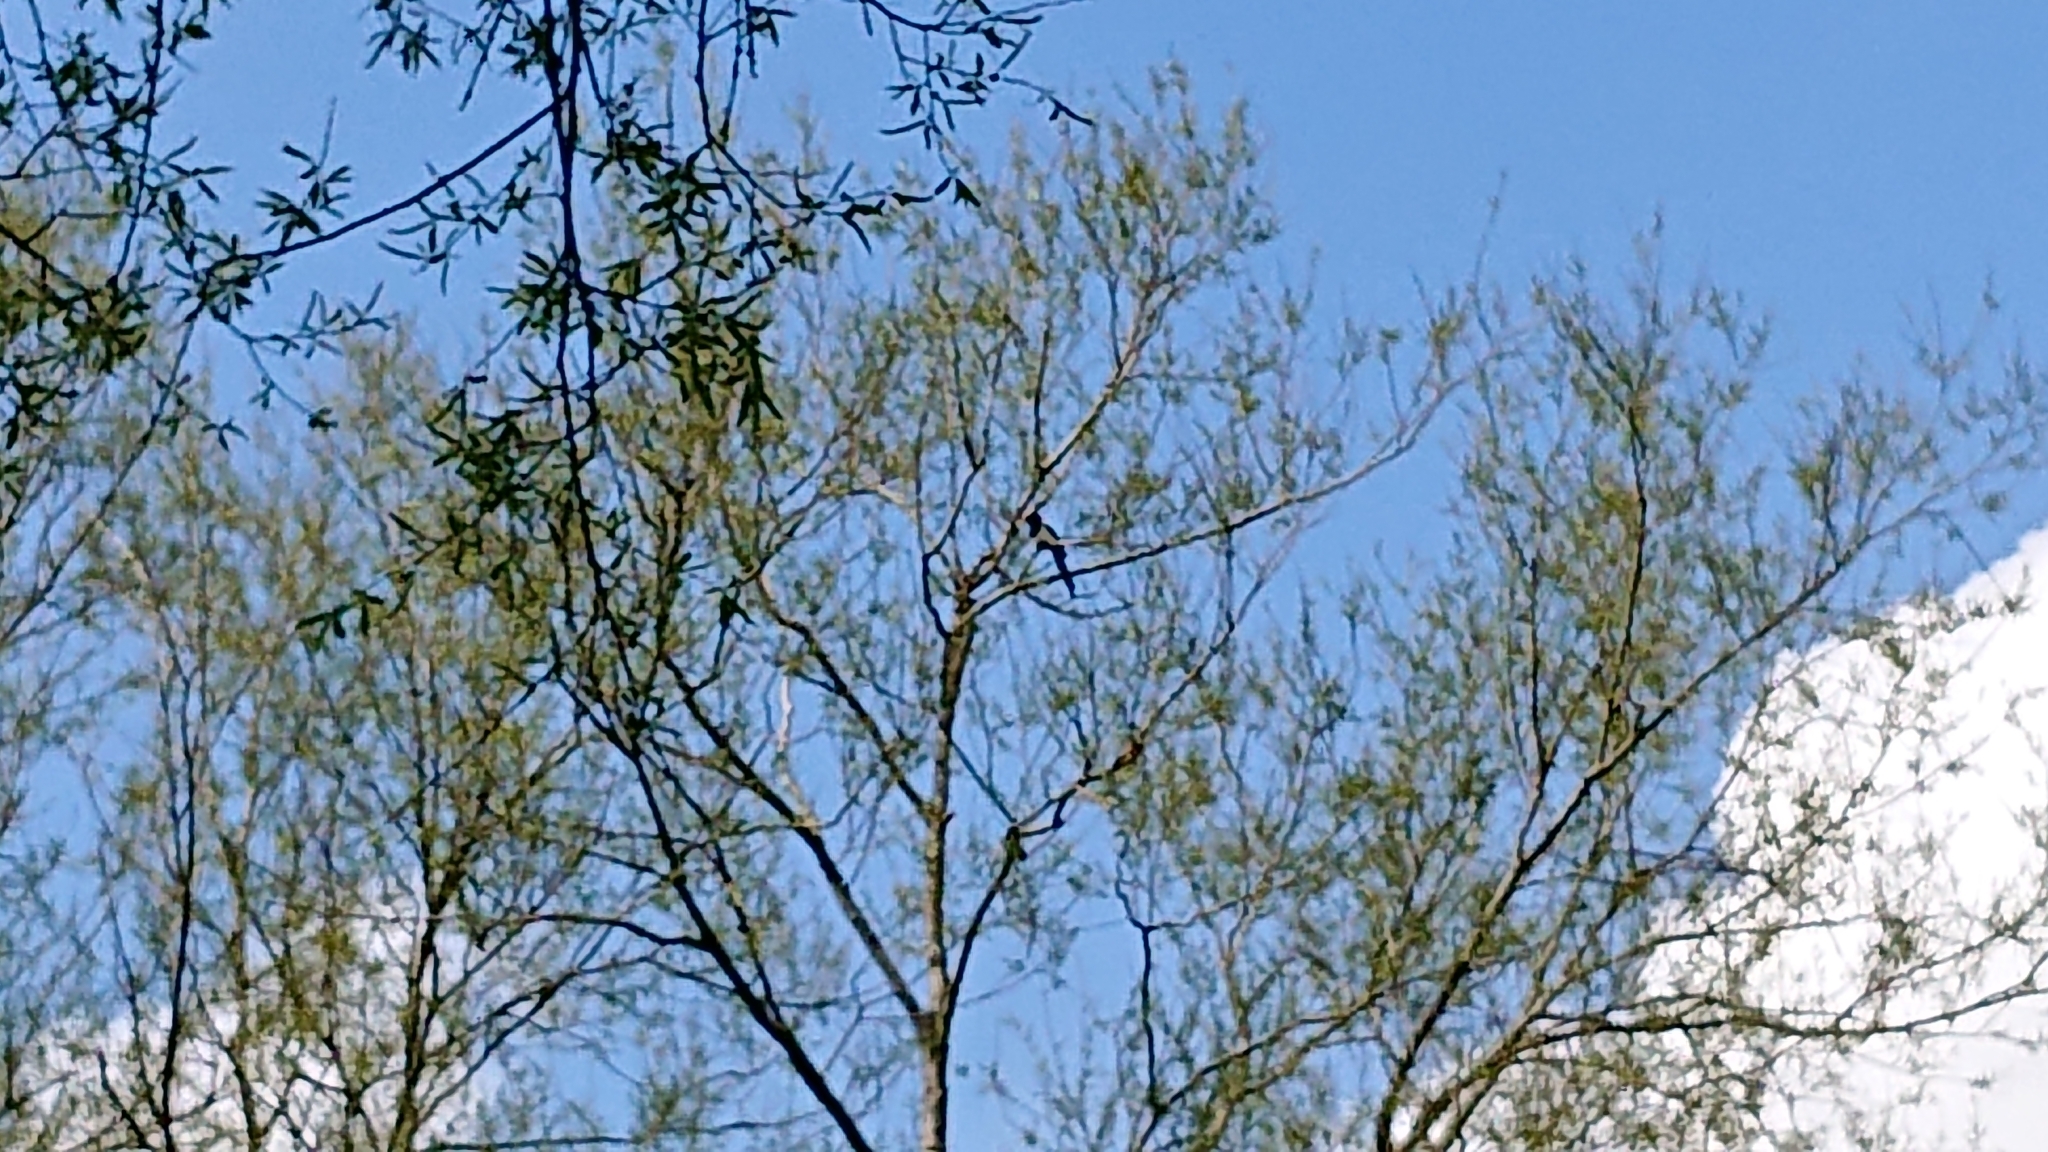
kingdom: Animalia
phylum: Chordata
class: Aves
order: Passeriformes
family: Corvidae
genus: Pica
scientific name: Pica pica
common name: Eurasian magpie
